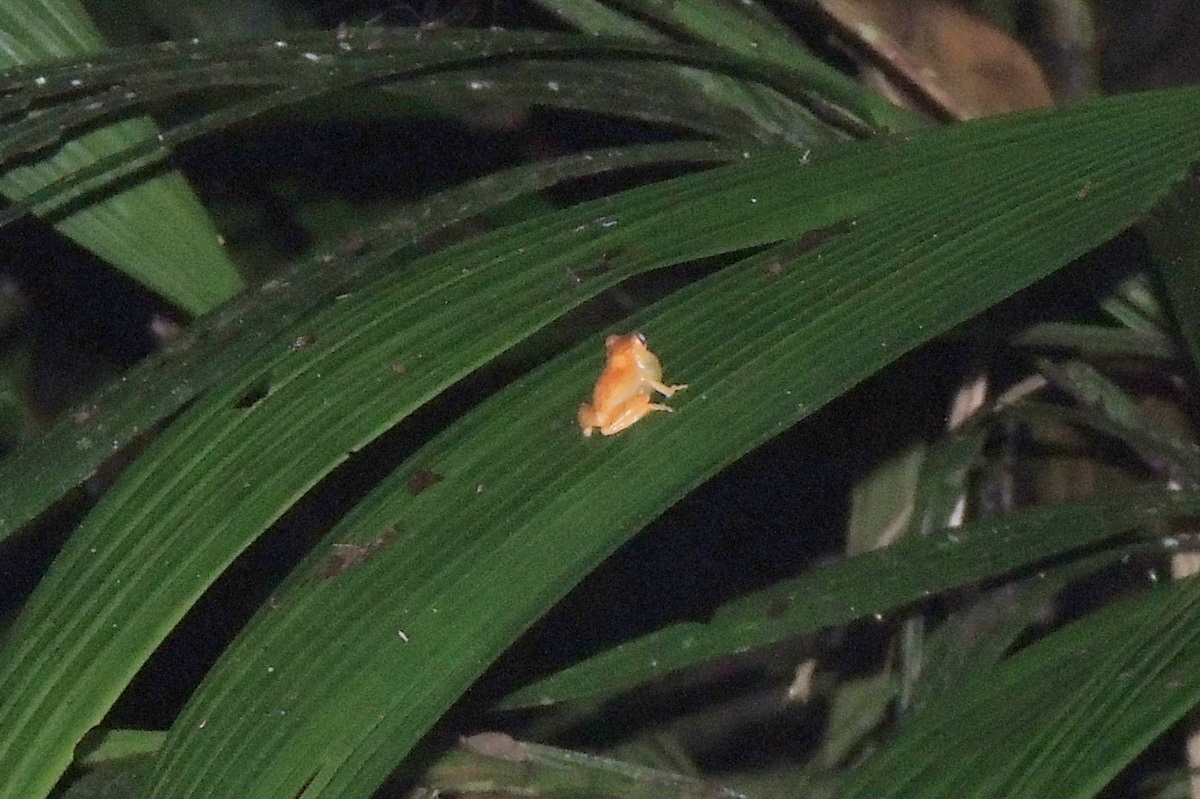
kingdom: Animalia
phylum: Chordata
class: Amphibia
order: Anura
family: Hylidae
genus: Dendropsophus
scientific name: Dendropsophus ebraccatus
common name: Hourglass treefrog
